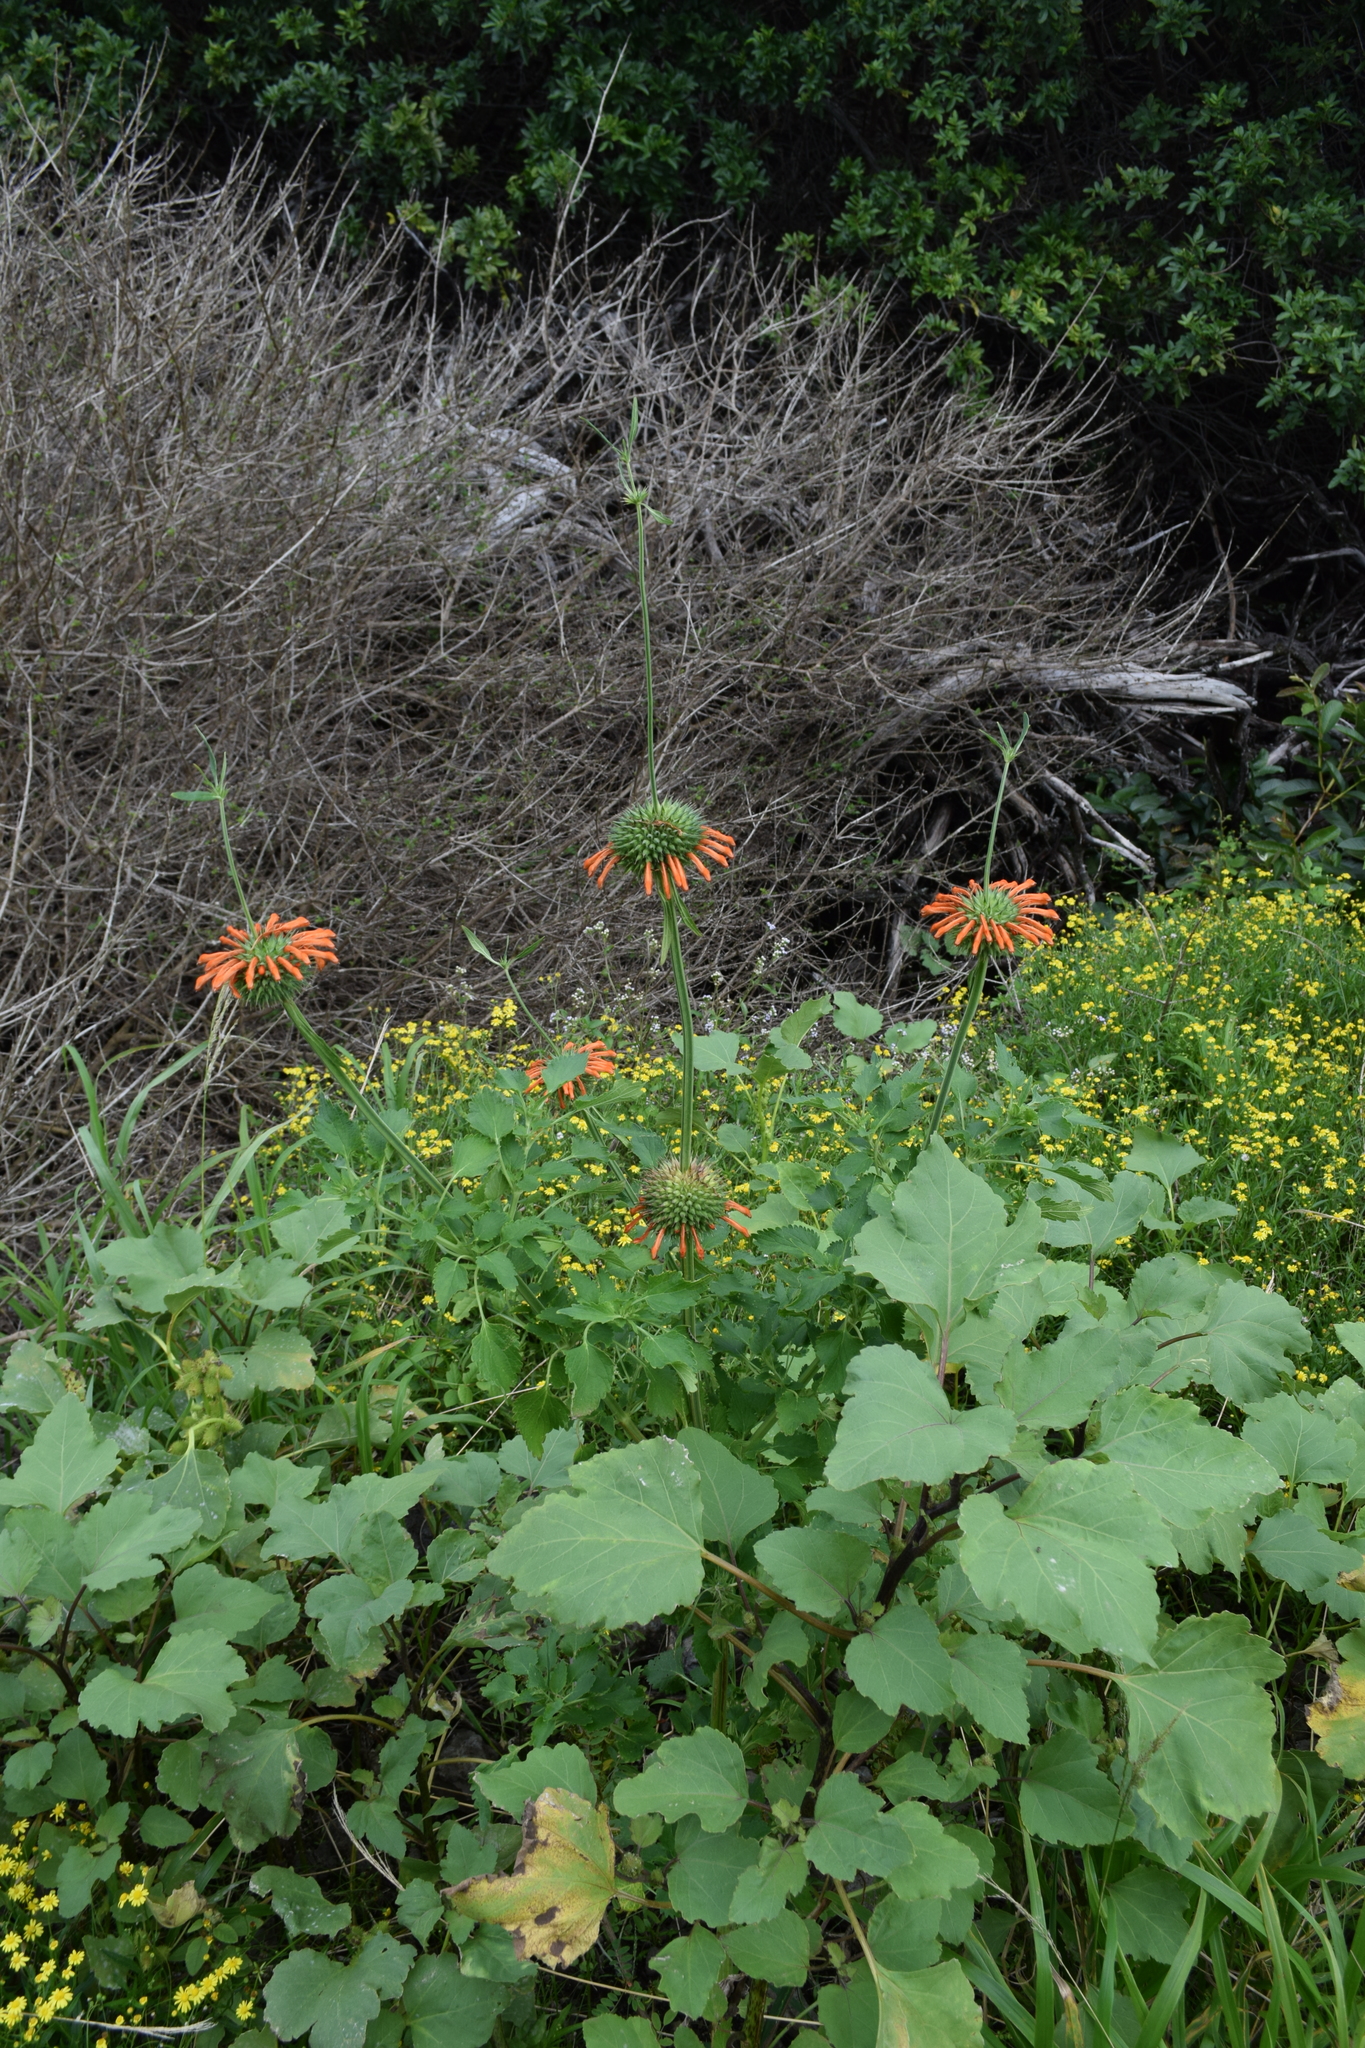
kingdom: Plantae
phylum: Tracheophyta
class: Magnoliopsida
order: Lamiales
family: Lamiaceae
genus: Leonotis
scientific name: Leonotis nepetifolia
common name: Christmas candlestick
